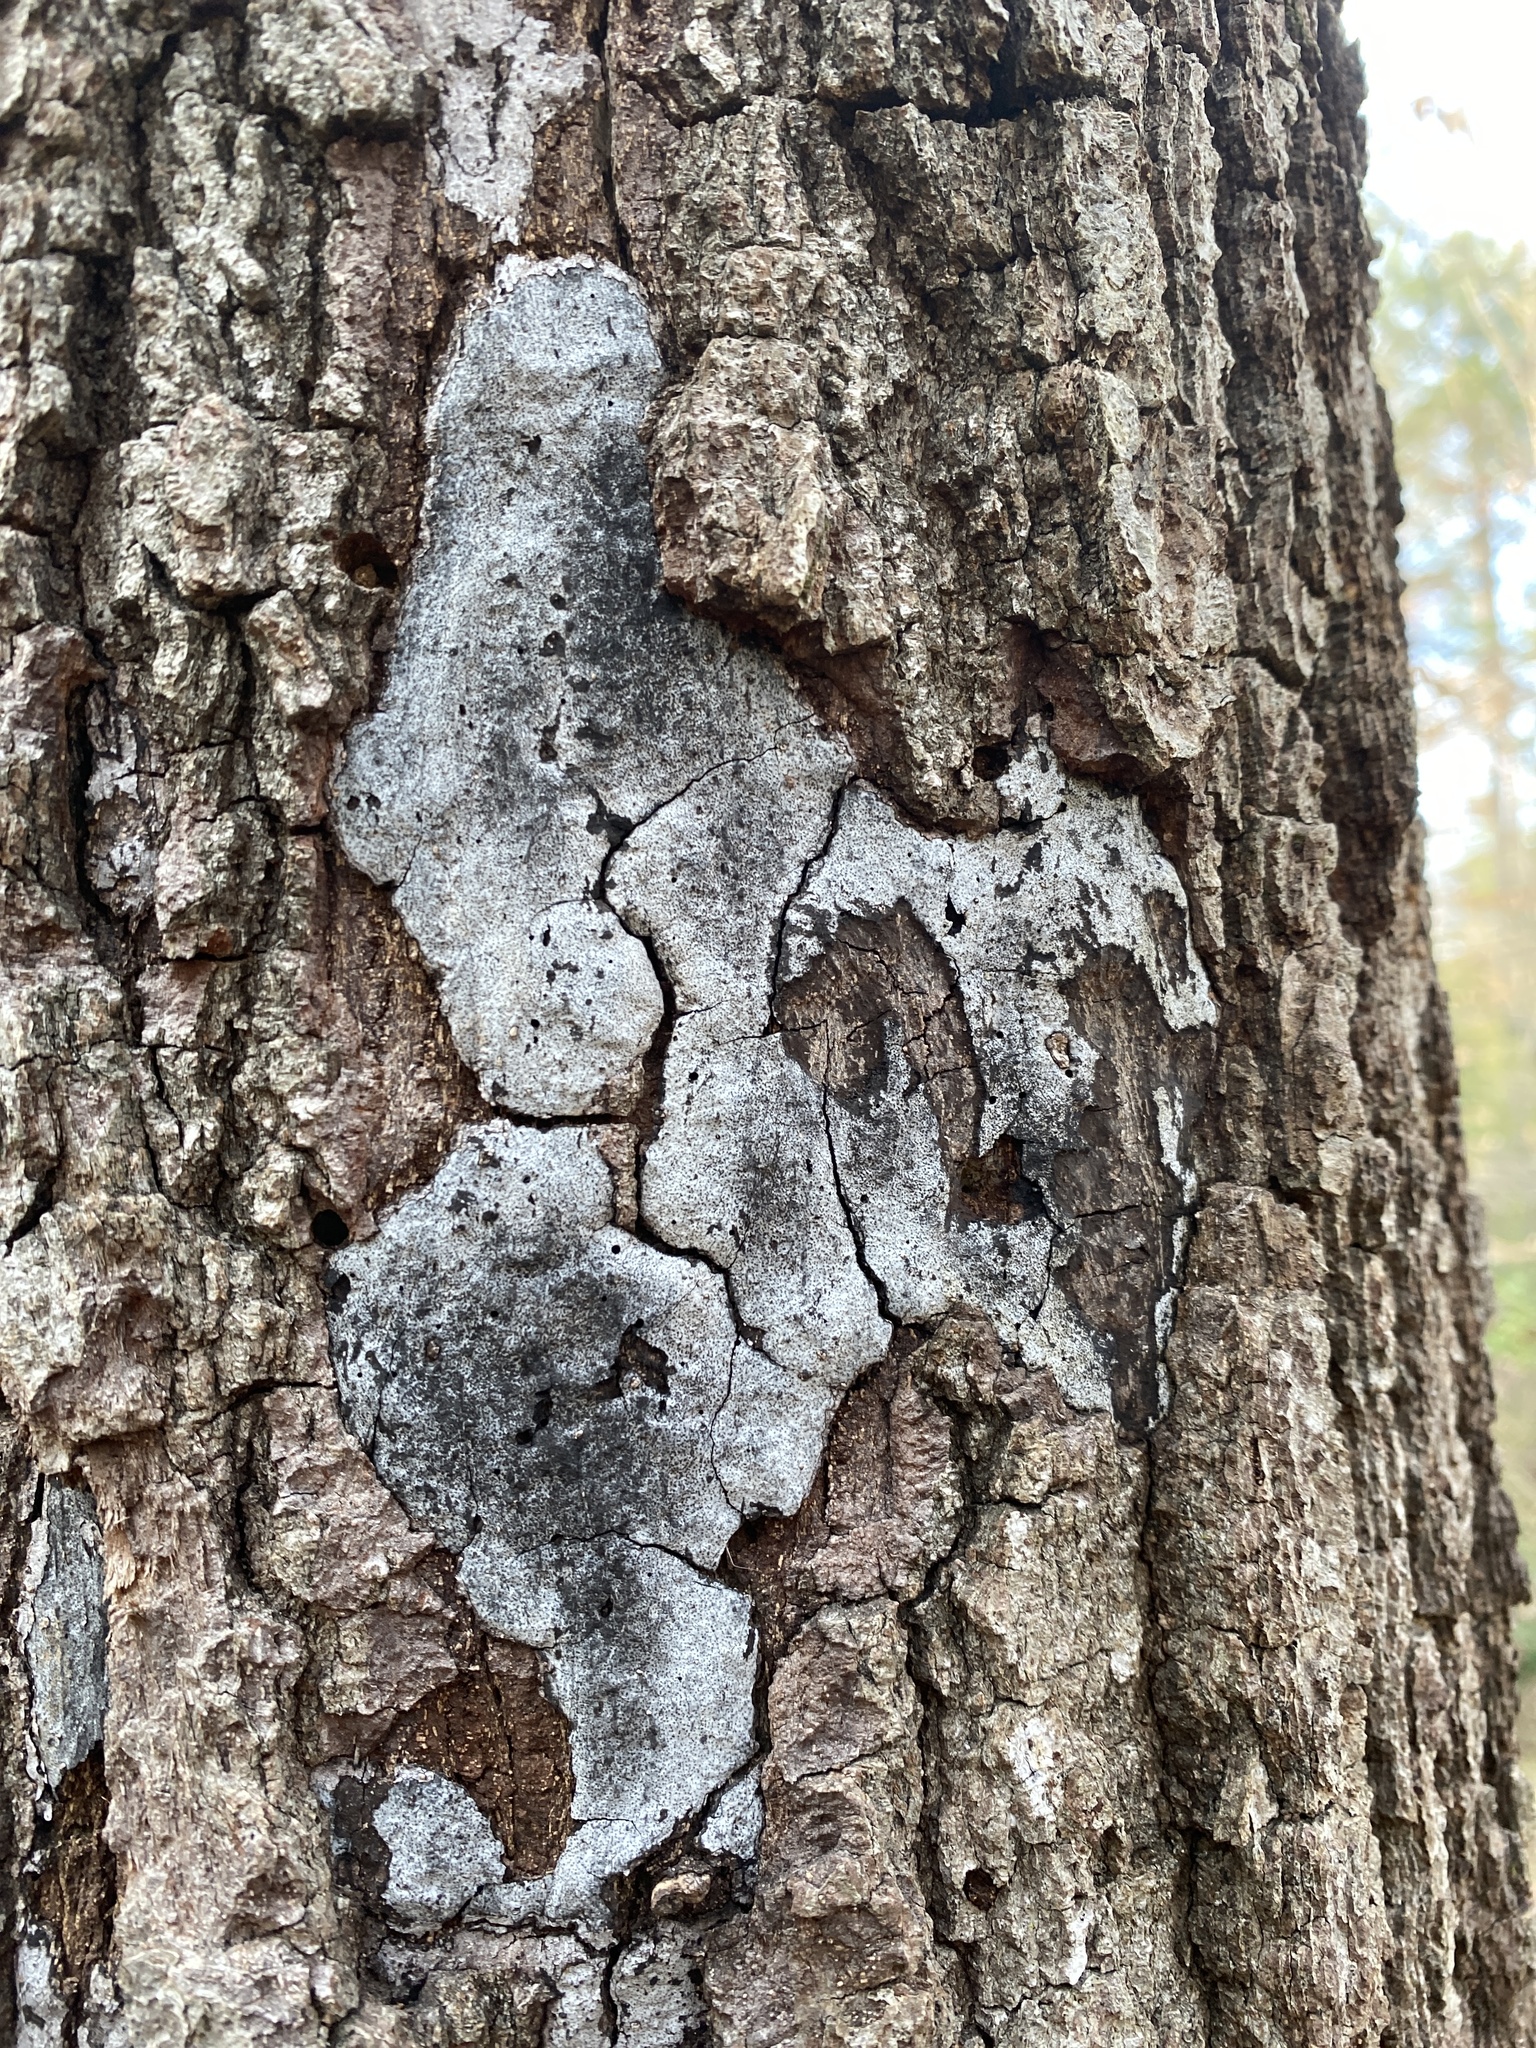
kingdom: Fungi
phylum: Ascomycota
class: Sordariomycetes
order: Xylariales
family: Graphostromataceae
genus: Biscogniauxia
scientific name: Biscogniauxia atropunctata
